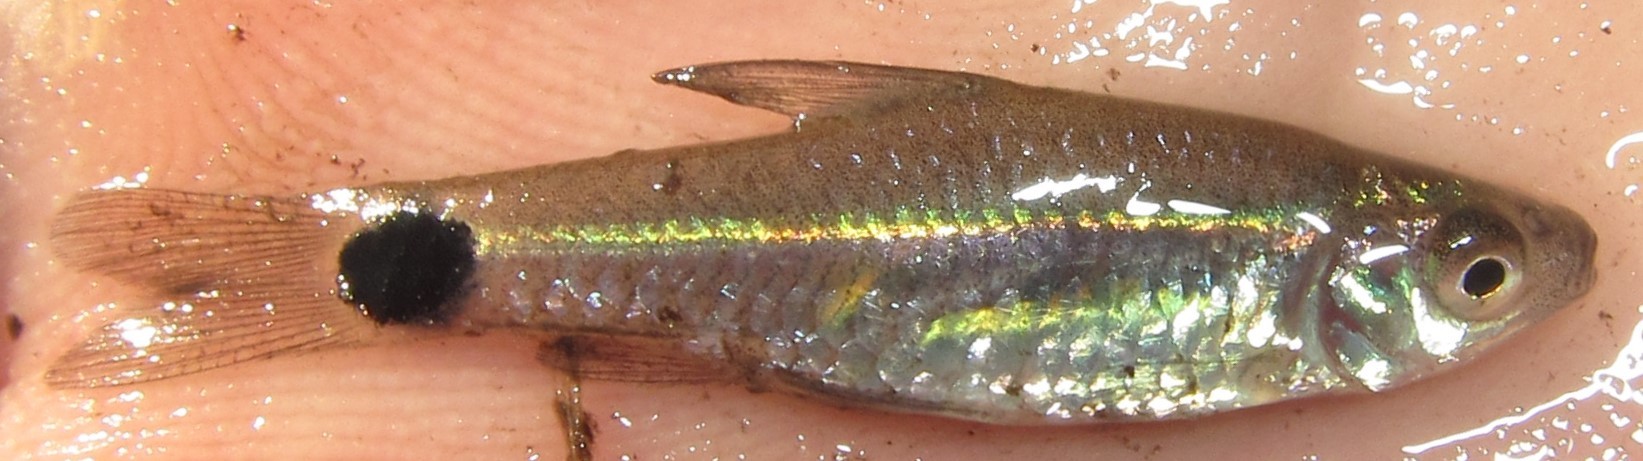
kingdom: Animalia
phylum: Chordata
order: Cypriniformes
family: Cyprinidae
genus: Enteromius
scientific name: Enteromius afrovernayi
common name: Spottail barb
